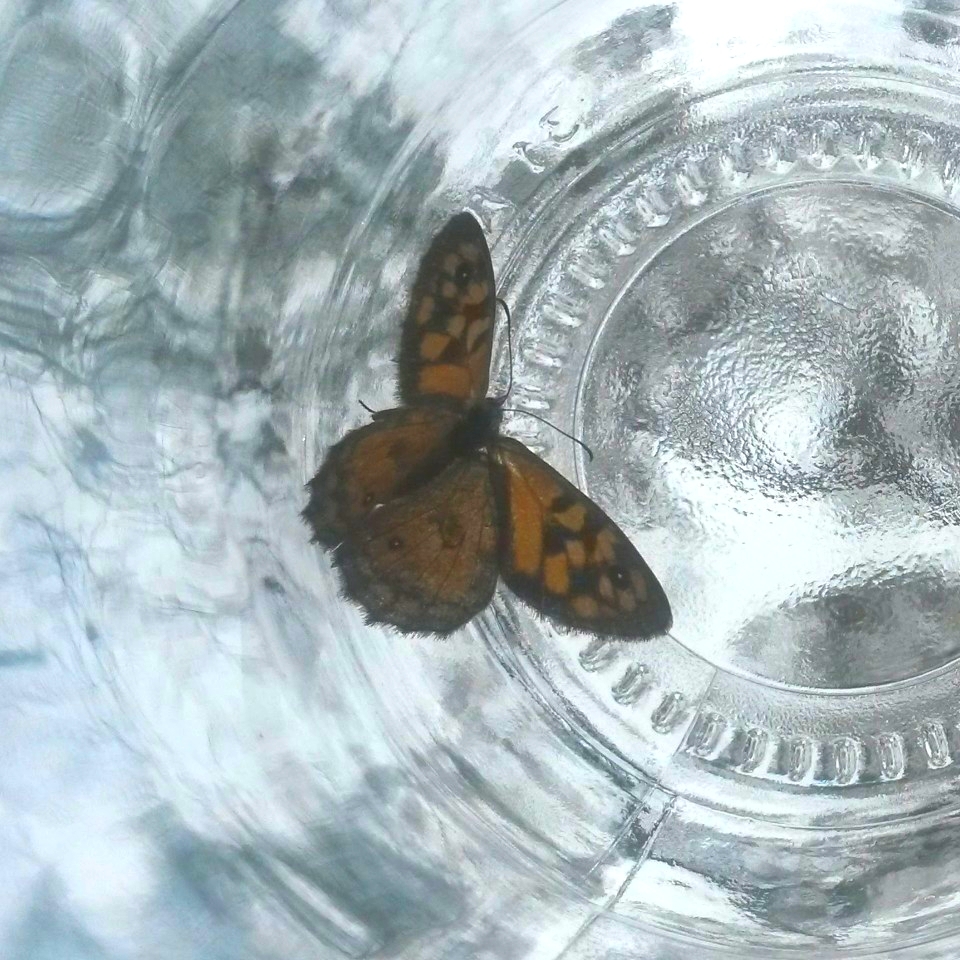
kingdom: Animalia
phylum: Arthropoda
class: Insecta
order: Lepidoptera
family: Nymphalidae
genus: Geitoneura
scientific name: Geitoneura klugii
